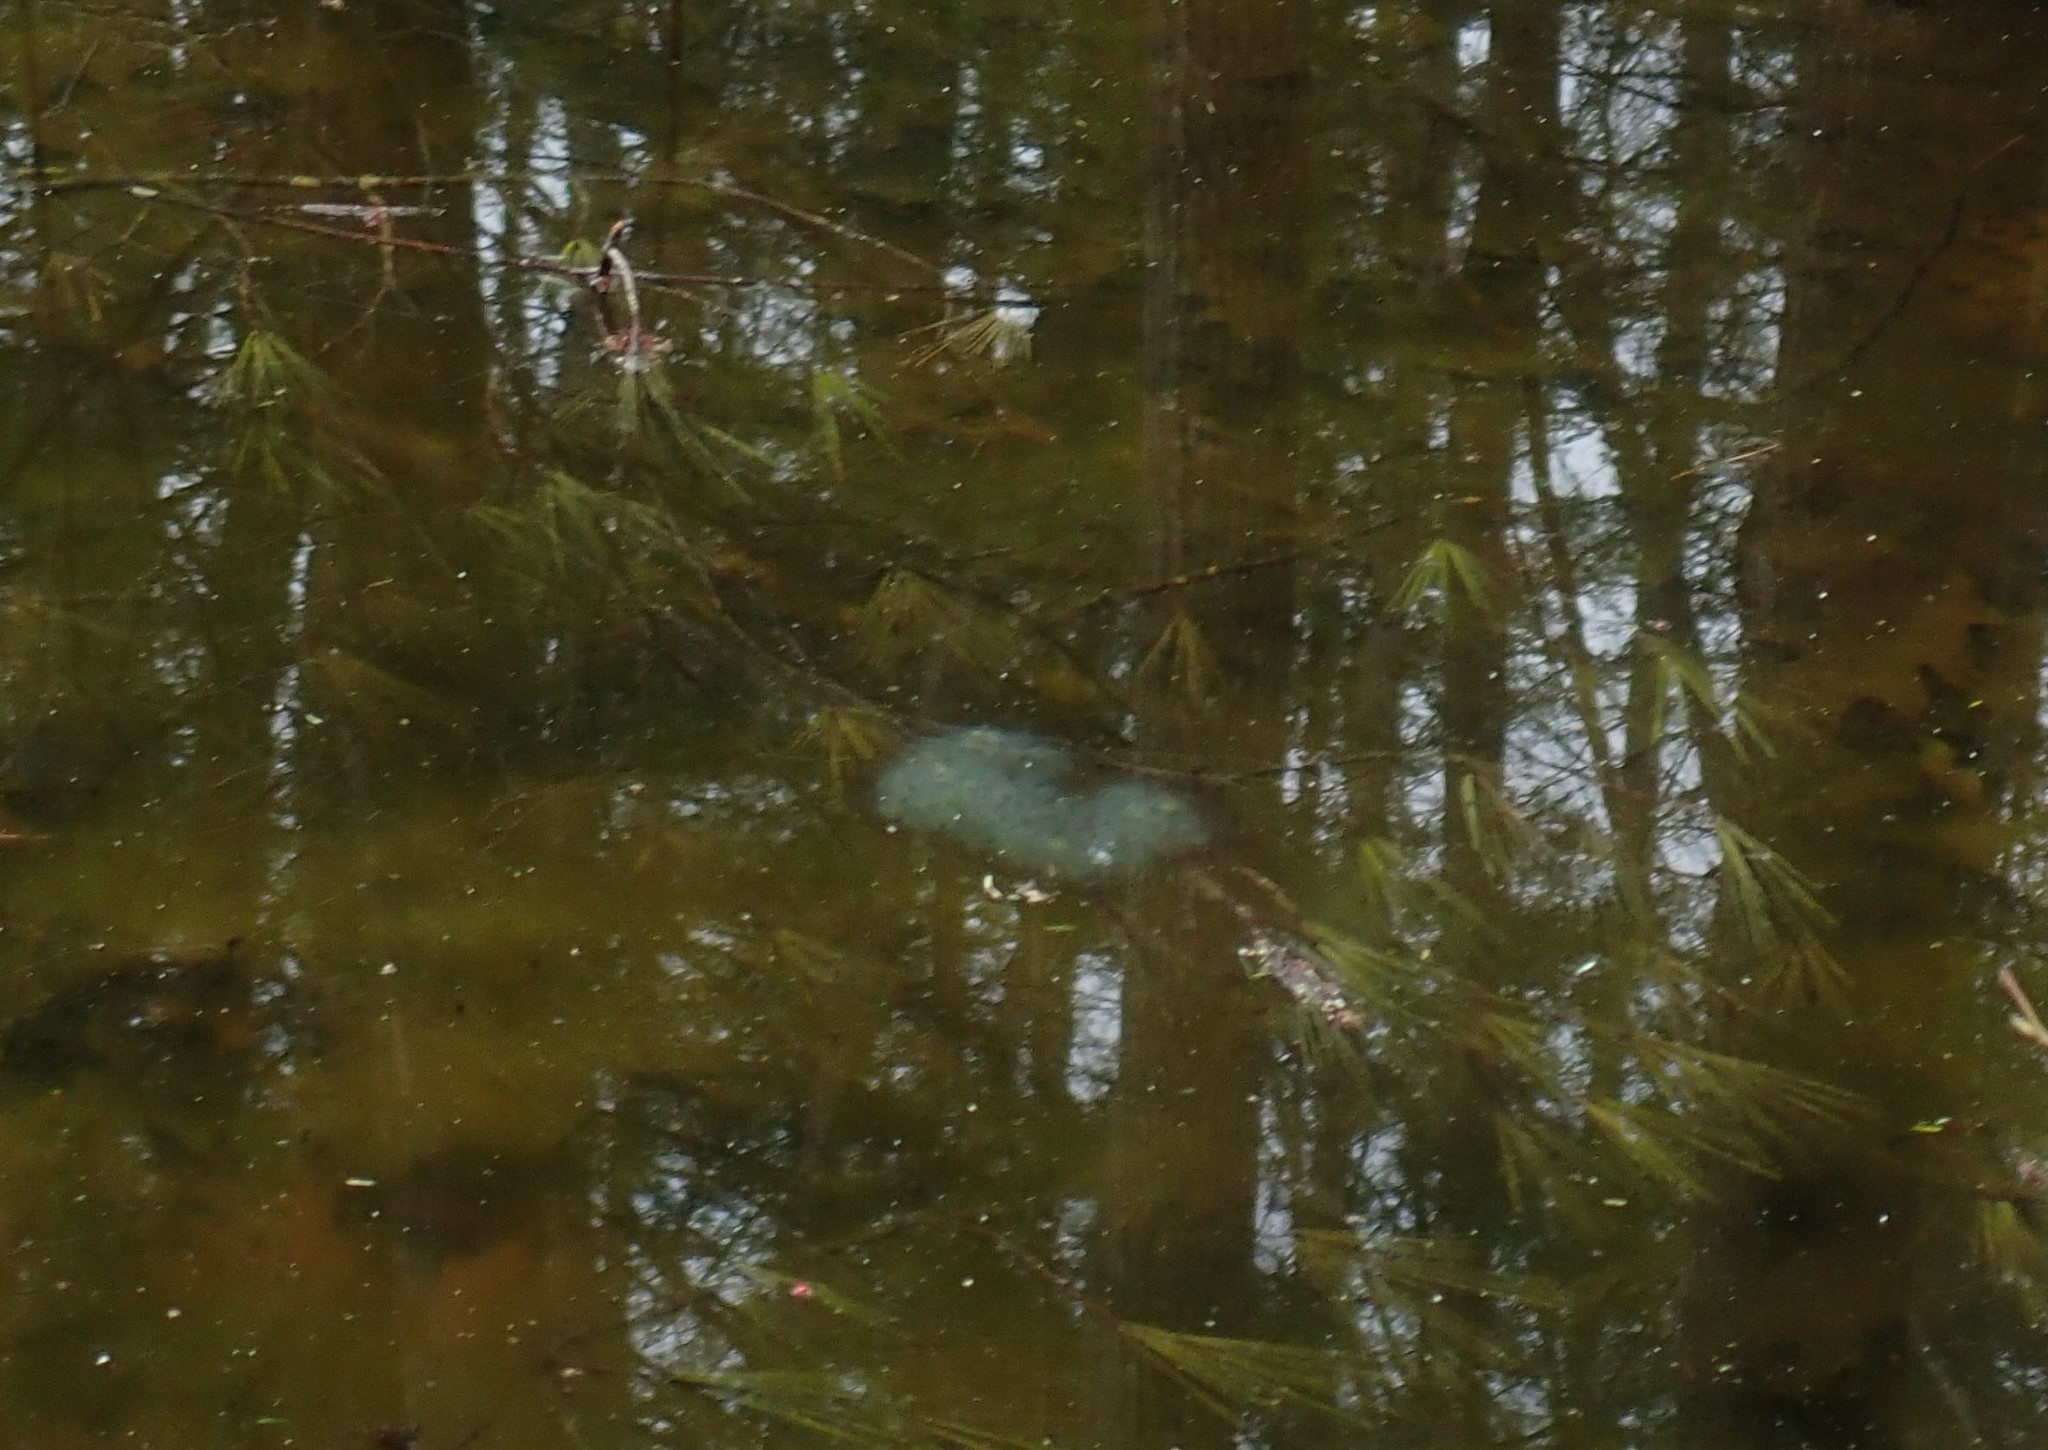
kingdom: Animalia
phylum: Chordata
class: Amphibia
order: Caudata
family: Ambystomatidae
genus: Ambystoma
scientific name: Ambystoma maculatum
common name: Spotted salamander
